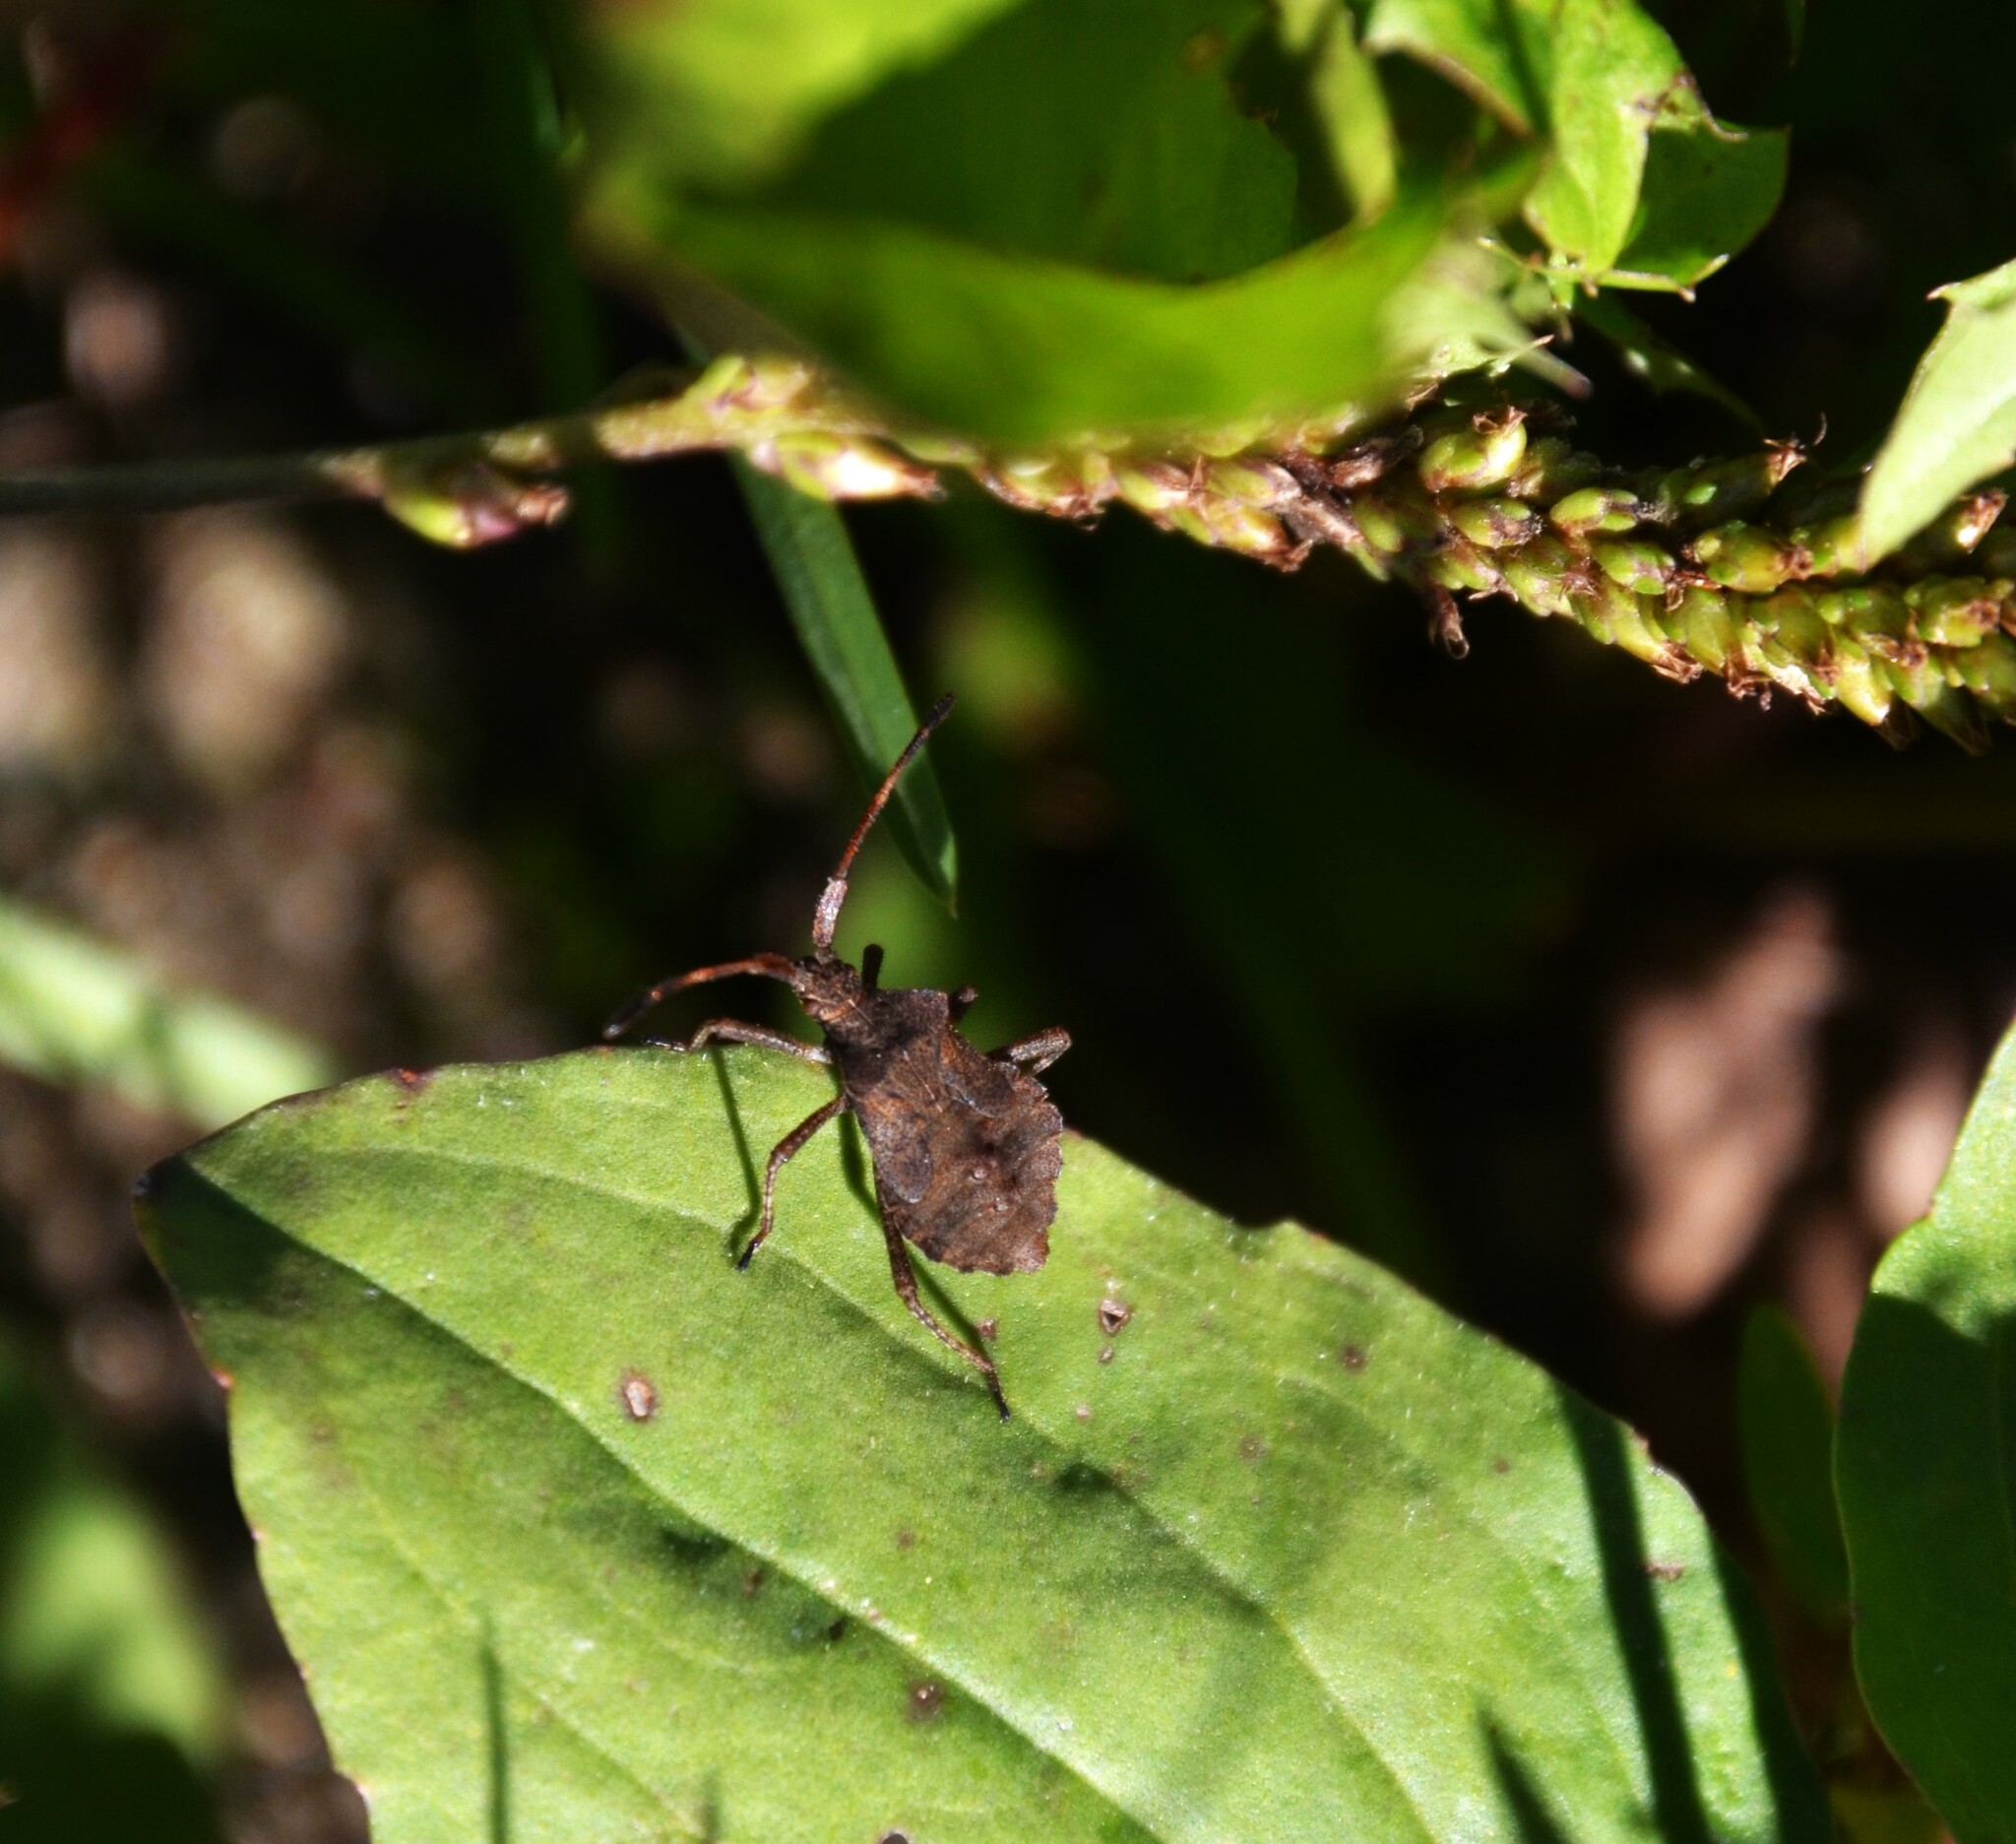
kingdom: Animalia
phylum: Arthropoda
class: Insecta
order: Hemiptera
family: Coreidae
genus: Coreus
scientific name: Coreus marginatus
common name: Dock bug
